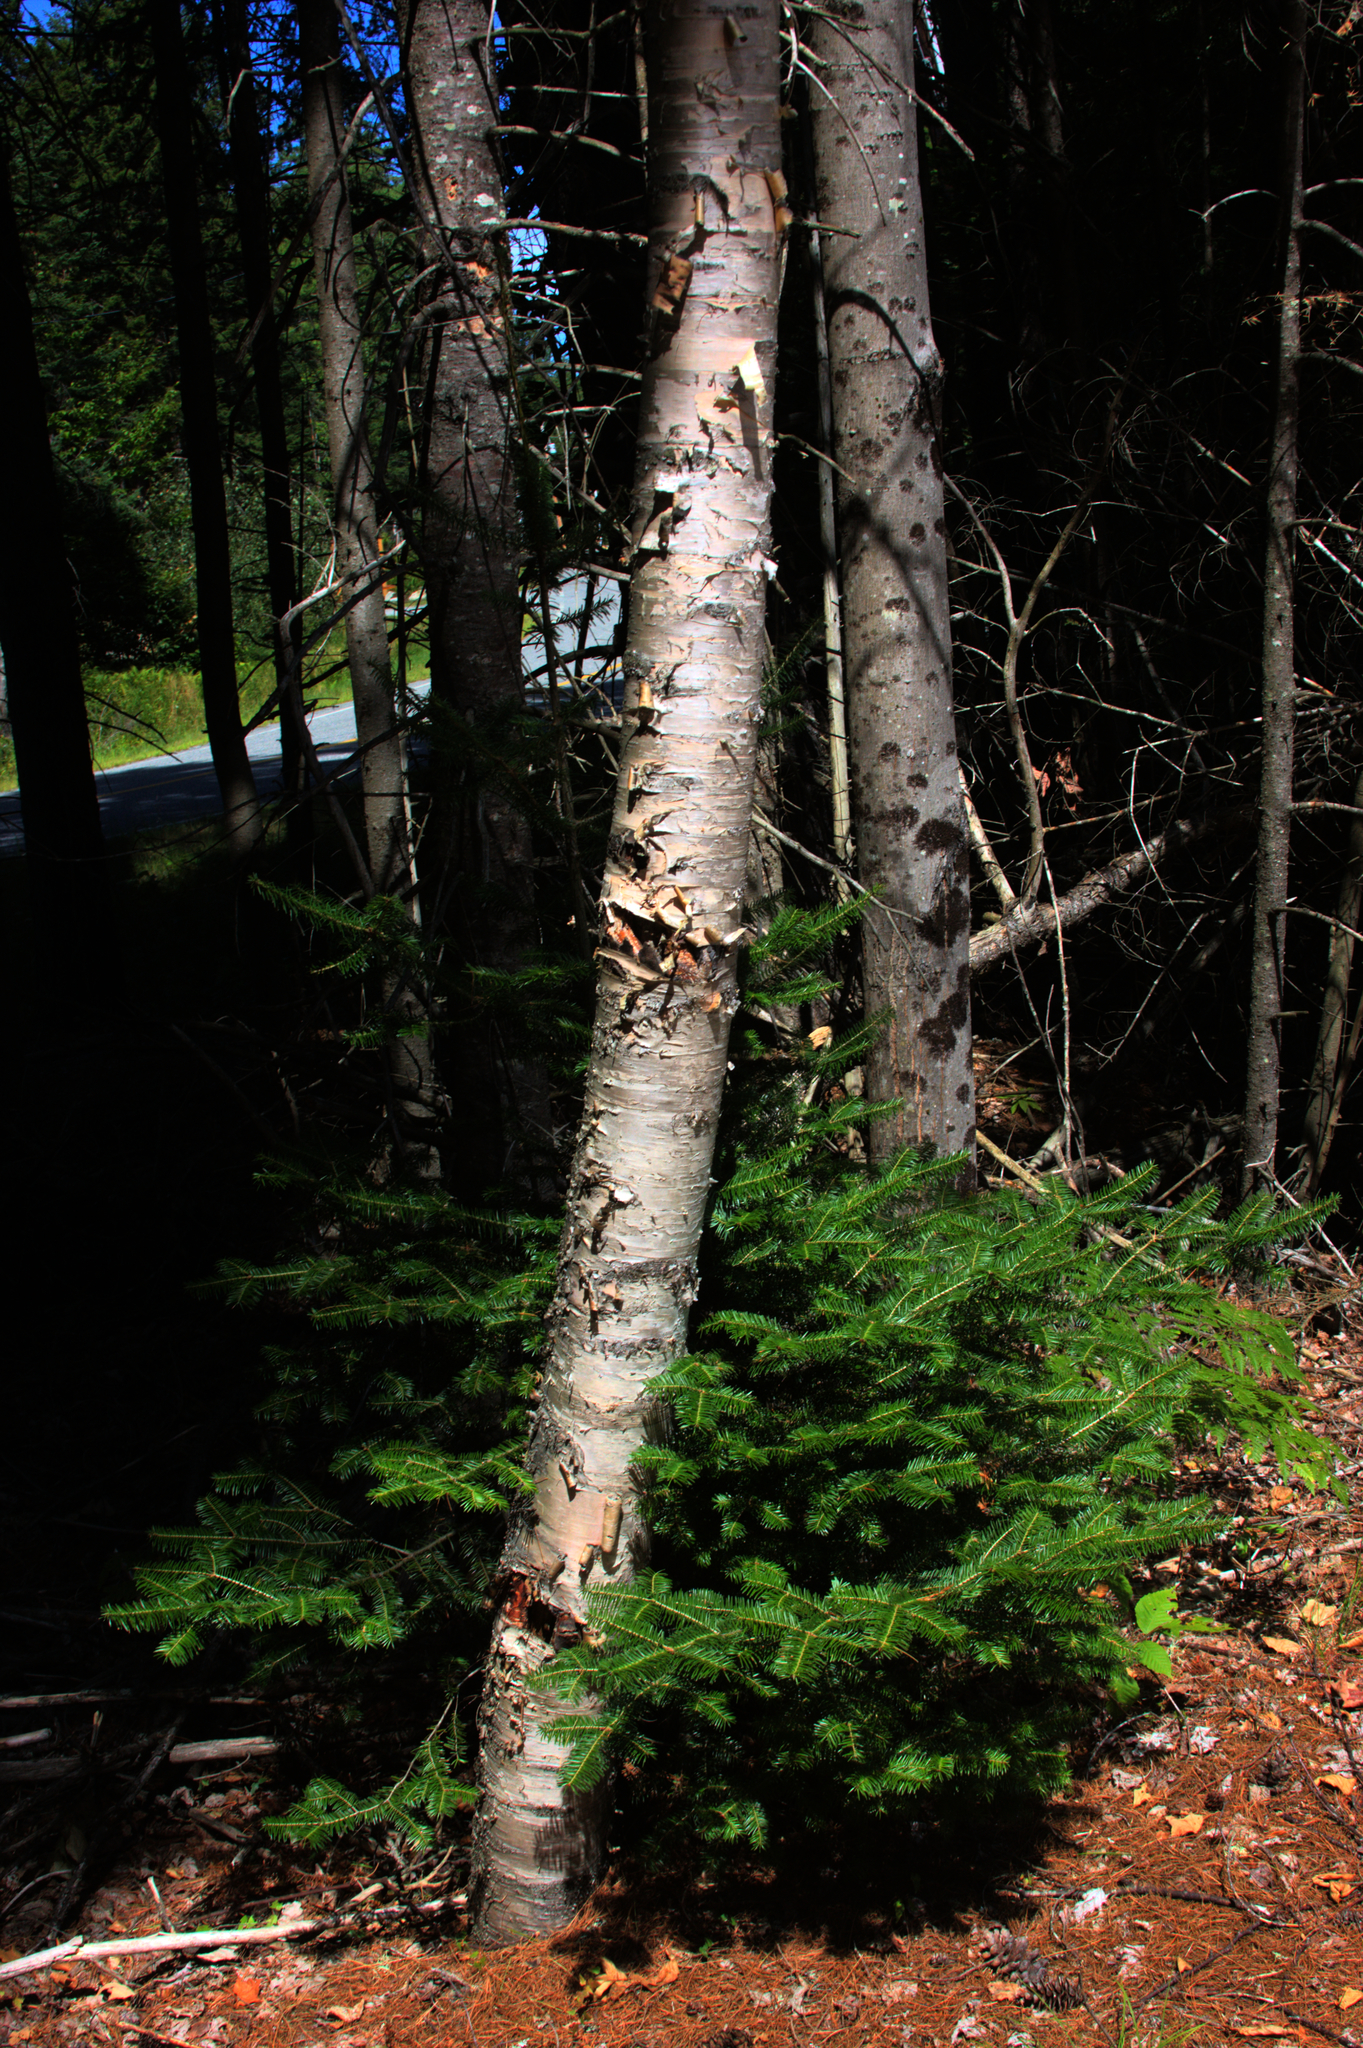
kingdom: Plantae
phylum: Tracheophyta
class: Pinopsida
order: Pinales
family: Pinaceae
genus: Abies
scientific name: Abies balsamea
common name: Balsam fir
